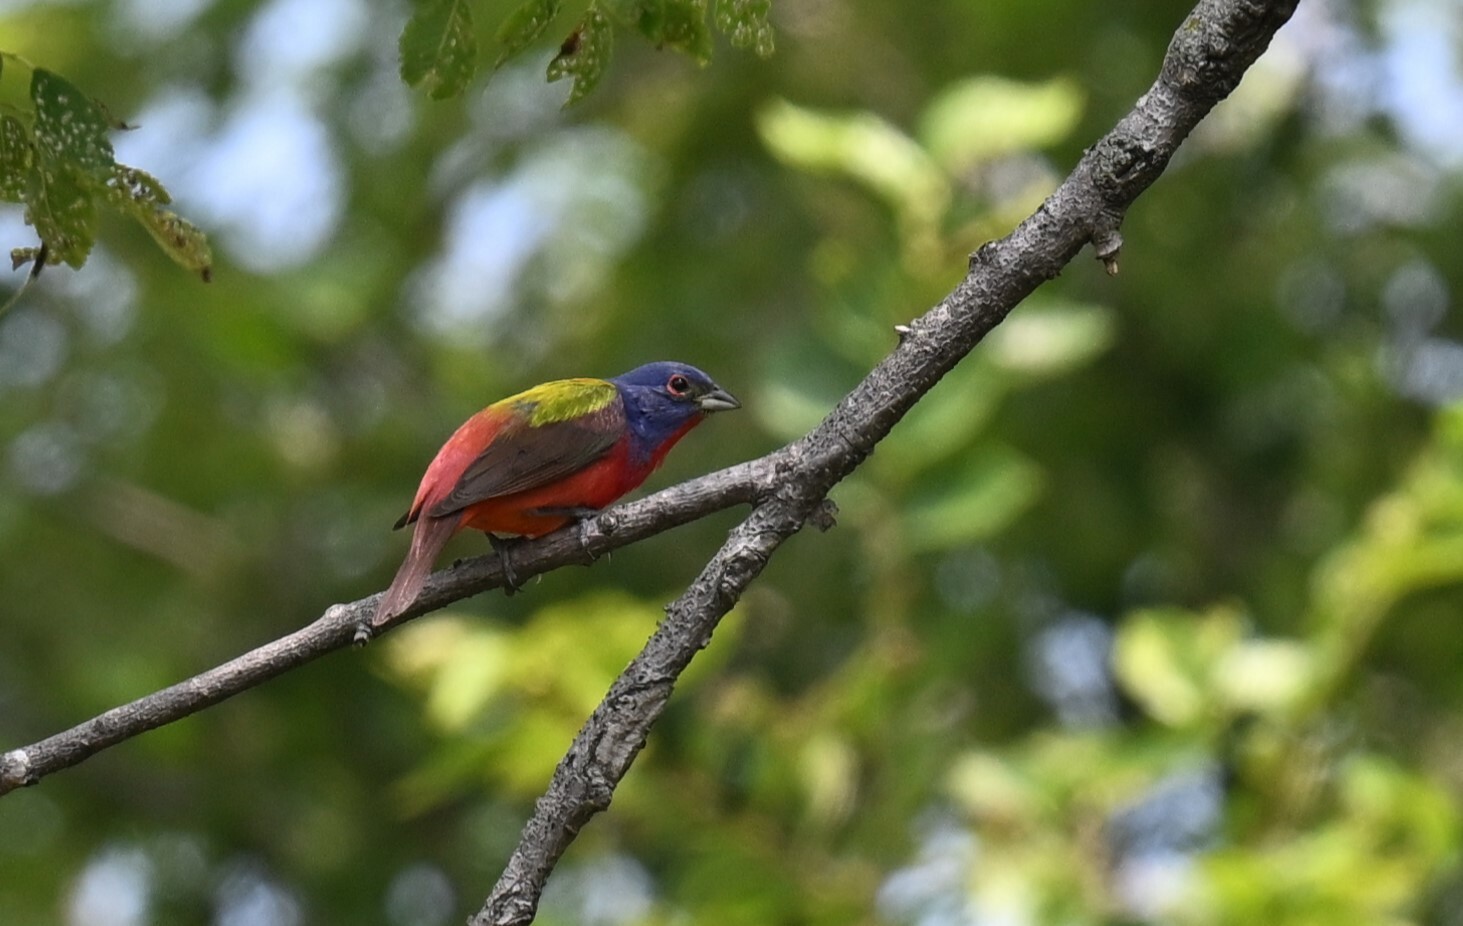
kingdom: Animalia
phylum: Chordata
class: Aves
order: Passeriformes
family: Cardinalidae
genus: Passerina
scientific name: Passerina ciris
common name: Painted bunting
